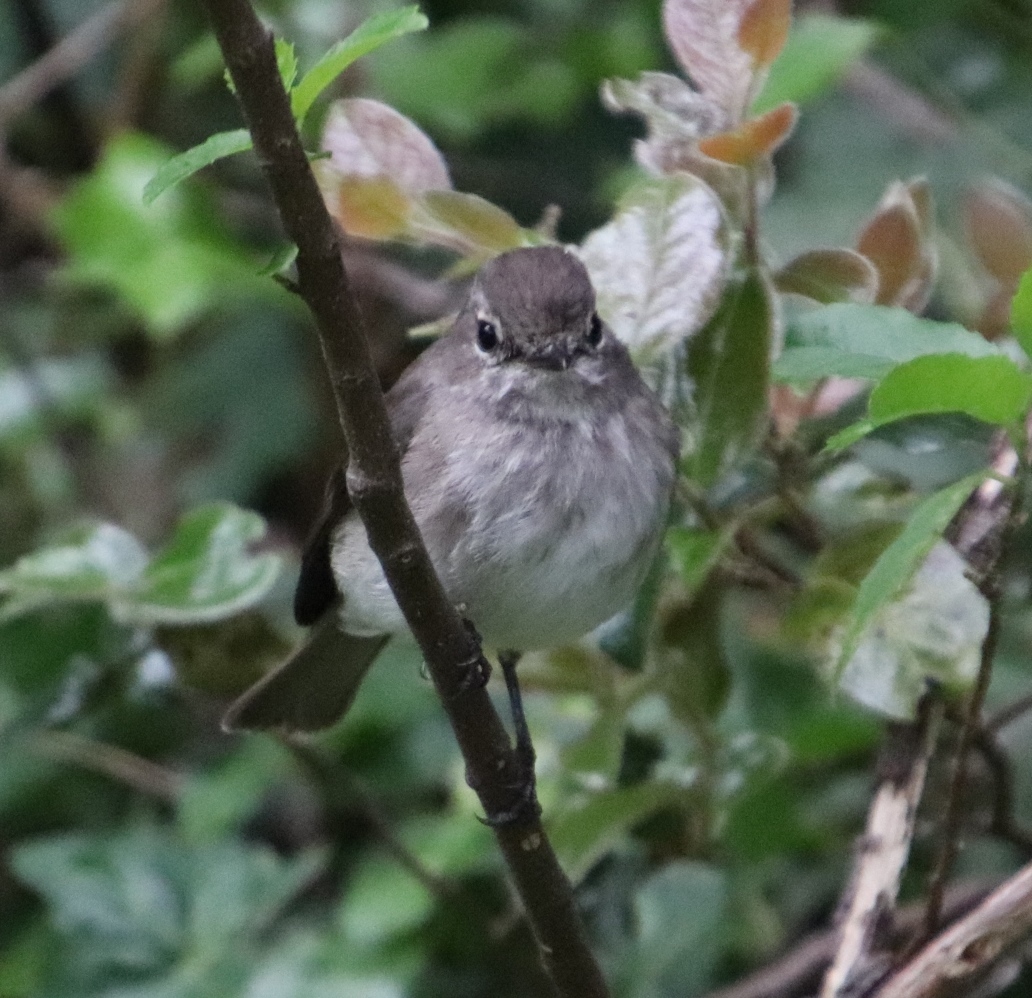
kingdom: Animalia
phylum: Chordata
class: Aves
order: Passeriformes
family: Muscicapidae
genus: Muscicapa
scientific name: Muscicapa adusta
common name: African dusky flycatcher
